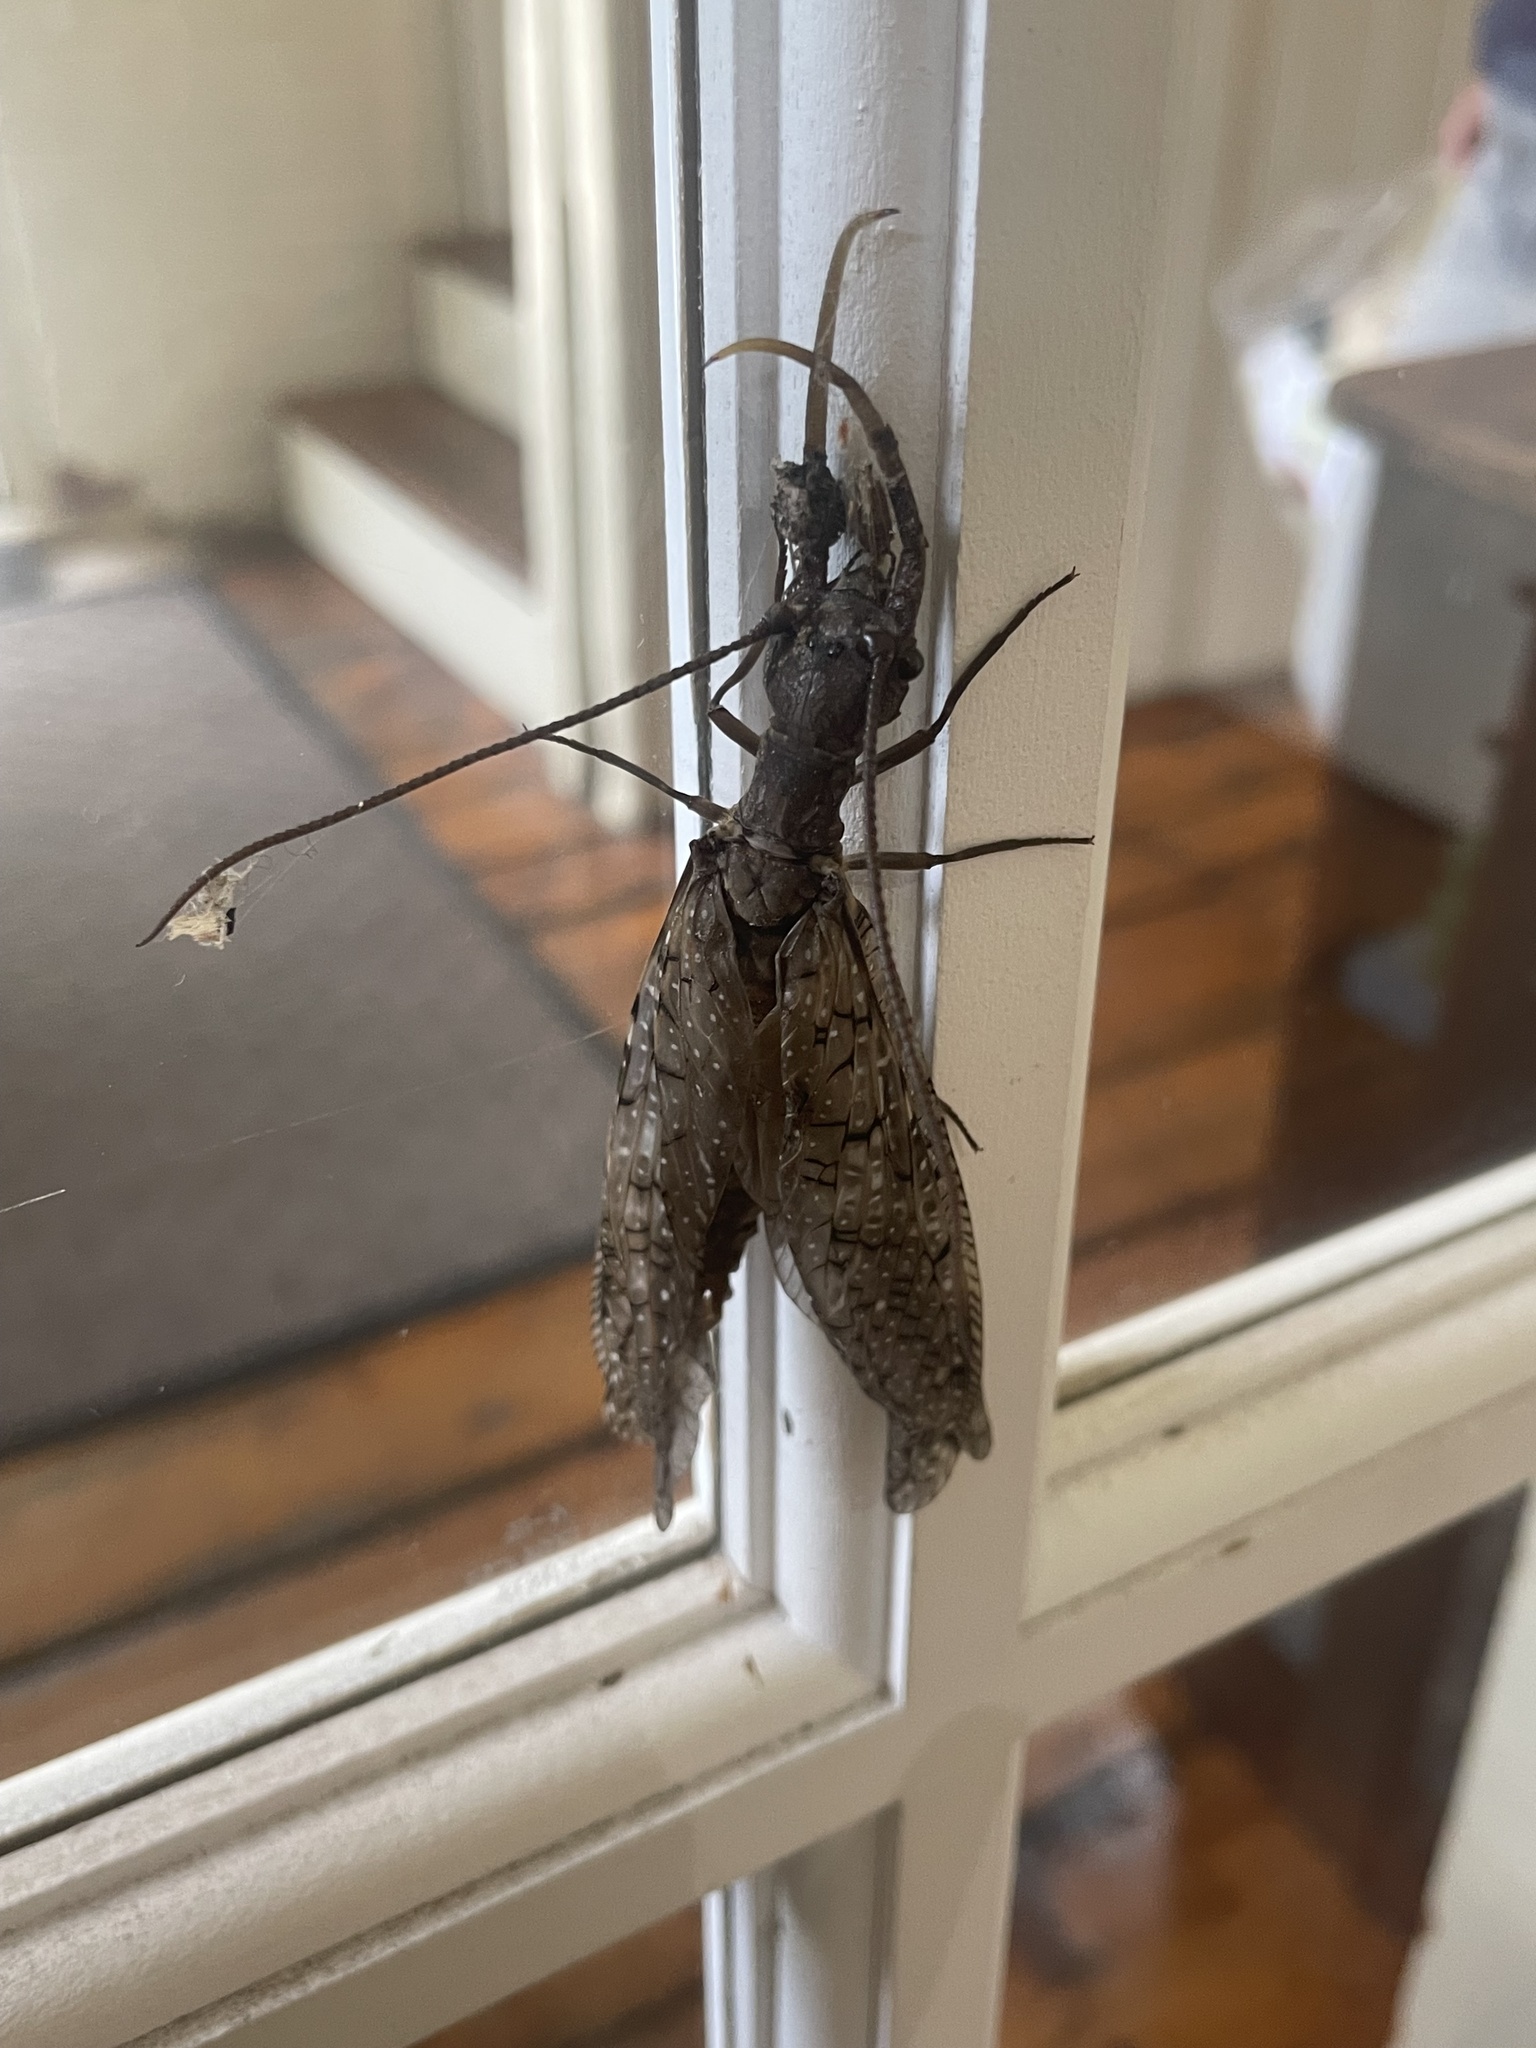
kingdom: Animalia
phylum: Arthropoda
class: Insecta
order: Megaloptera
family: Corydalidae
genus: Corydalus
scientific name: Corydalus cornutus
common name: Dobsonfly
